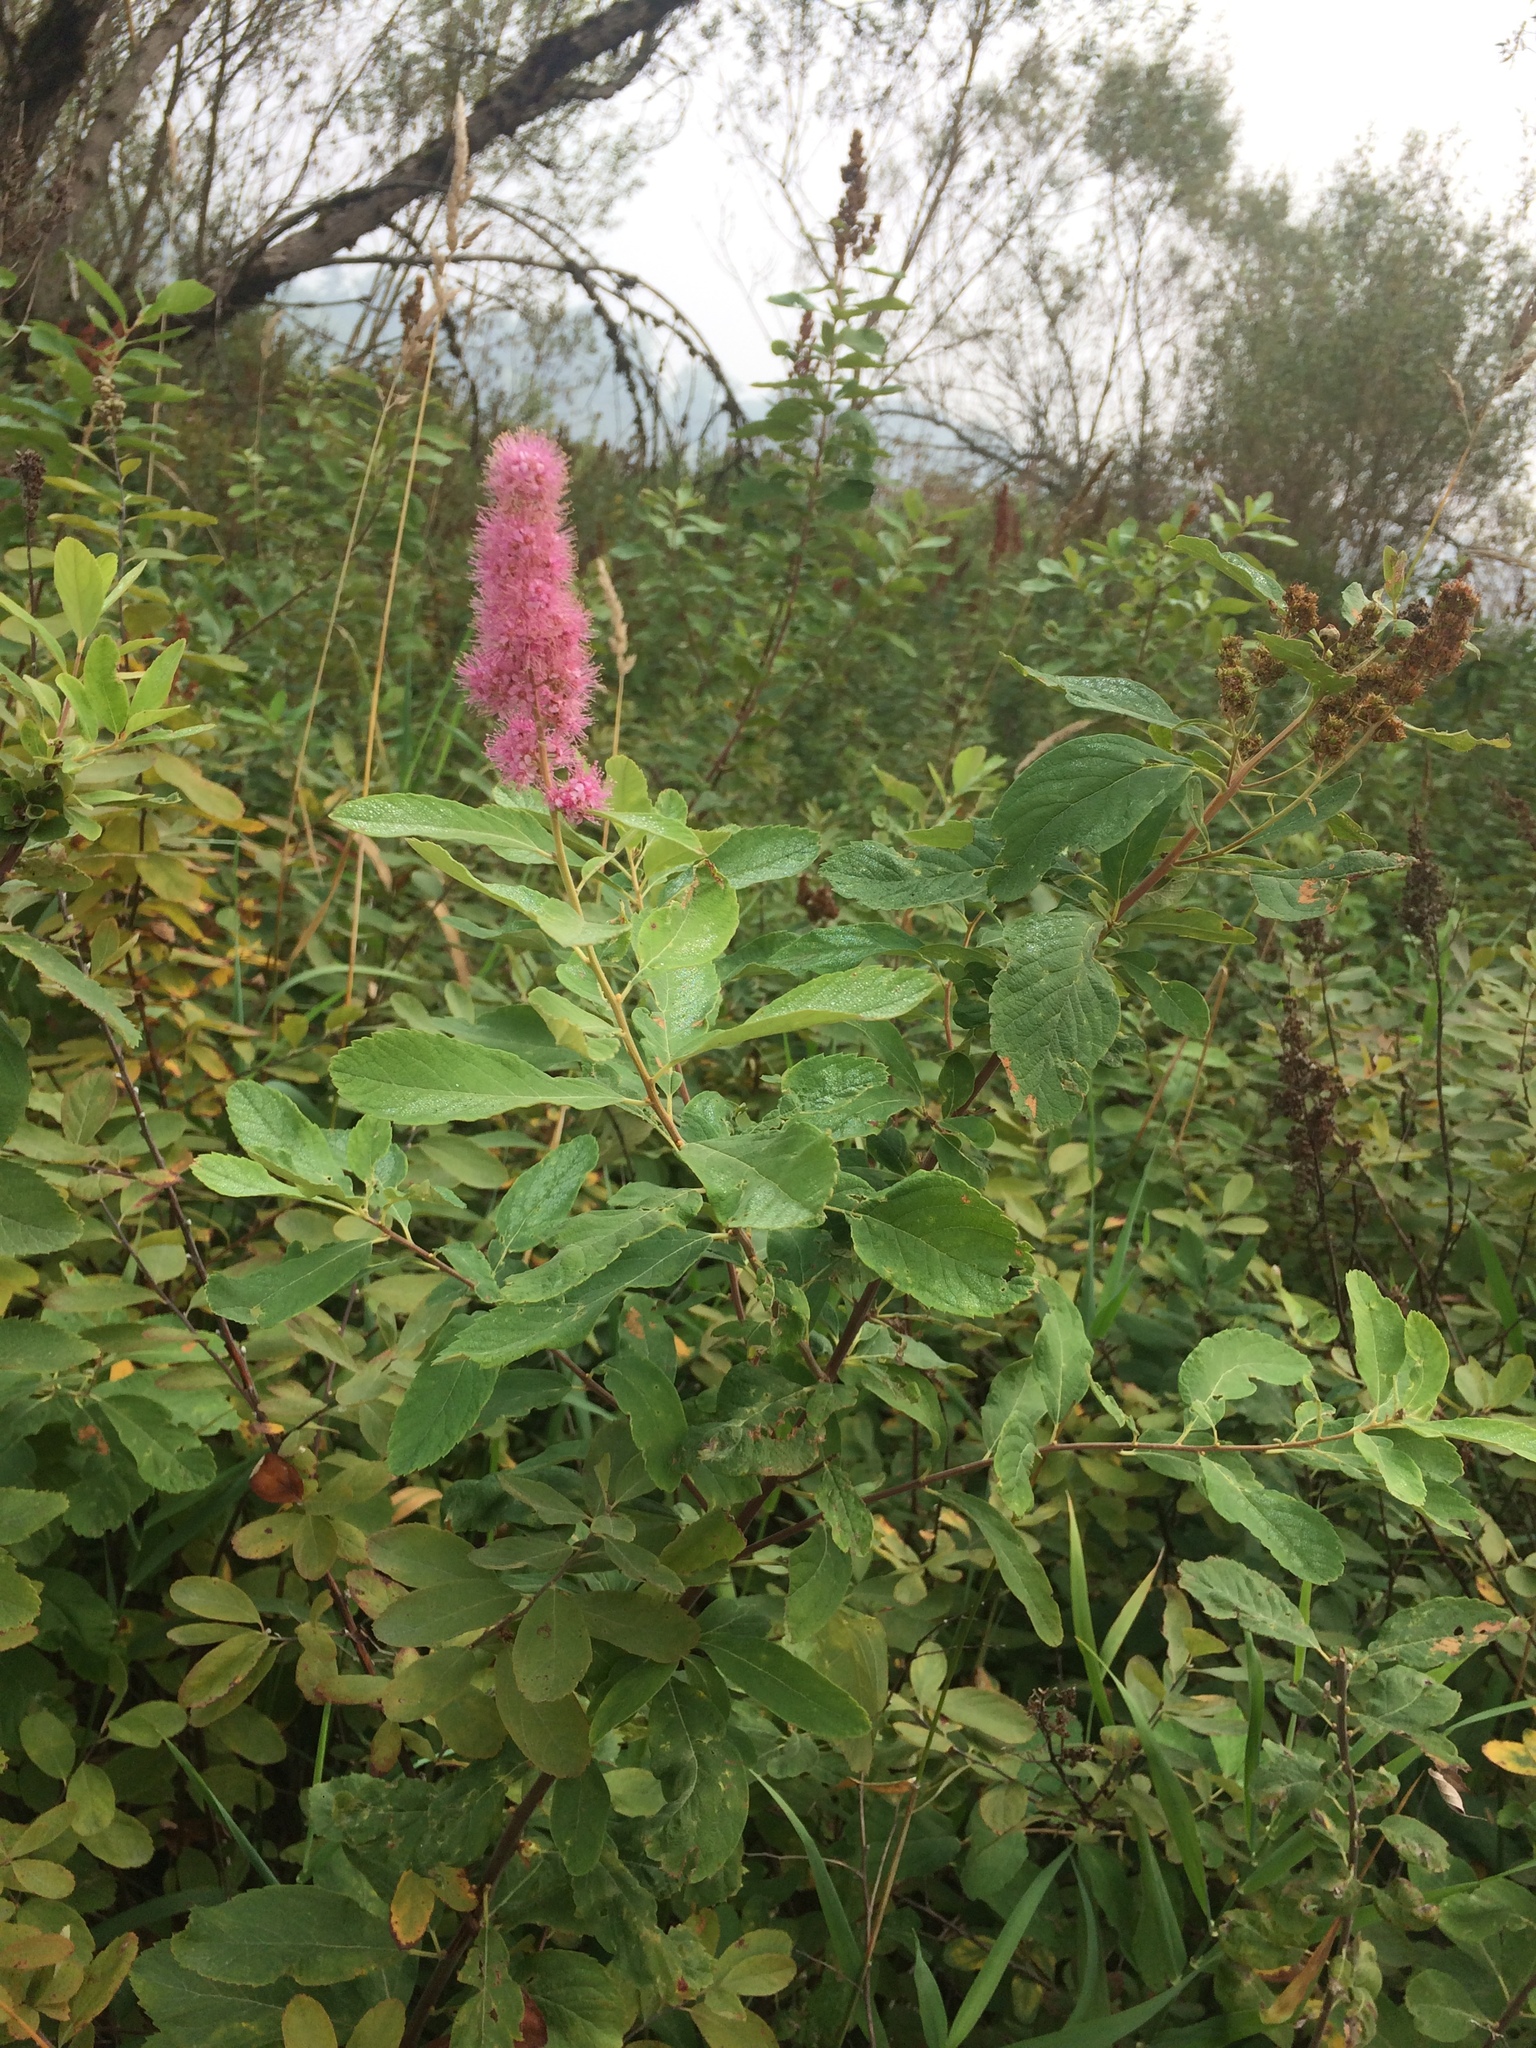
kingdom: Plantae
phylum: Tracheophyta
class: Magnoliopsida
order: Rosales
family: Rosaceae
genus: Spiraea
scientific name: Spiraea douglasii
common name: Steeplebush
